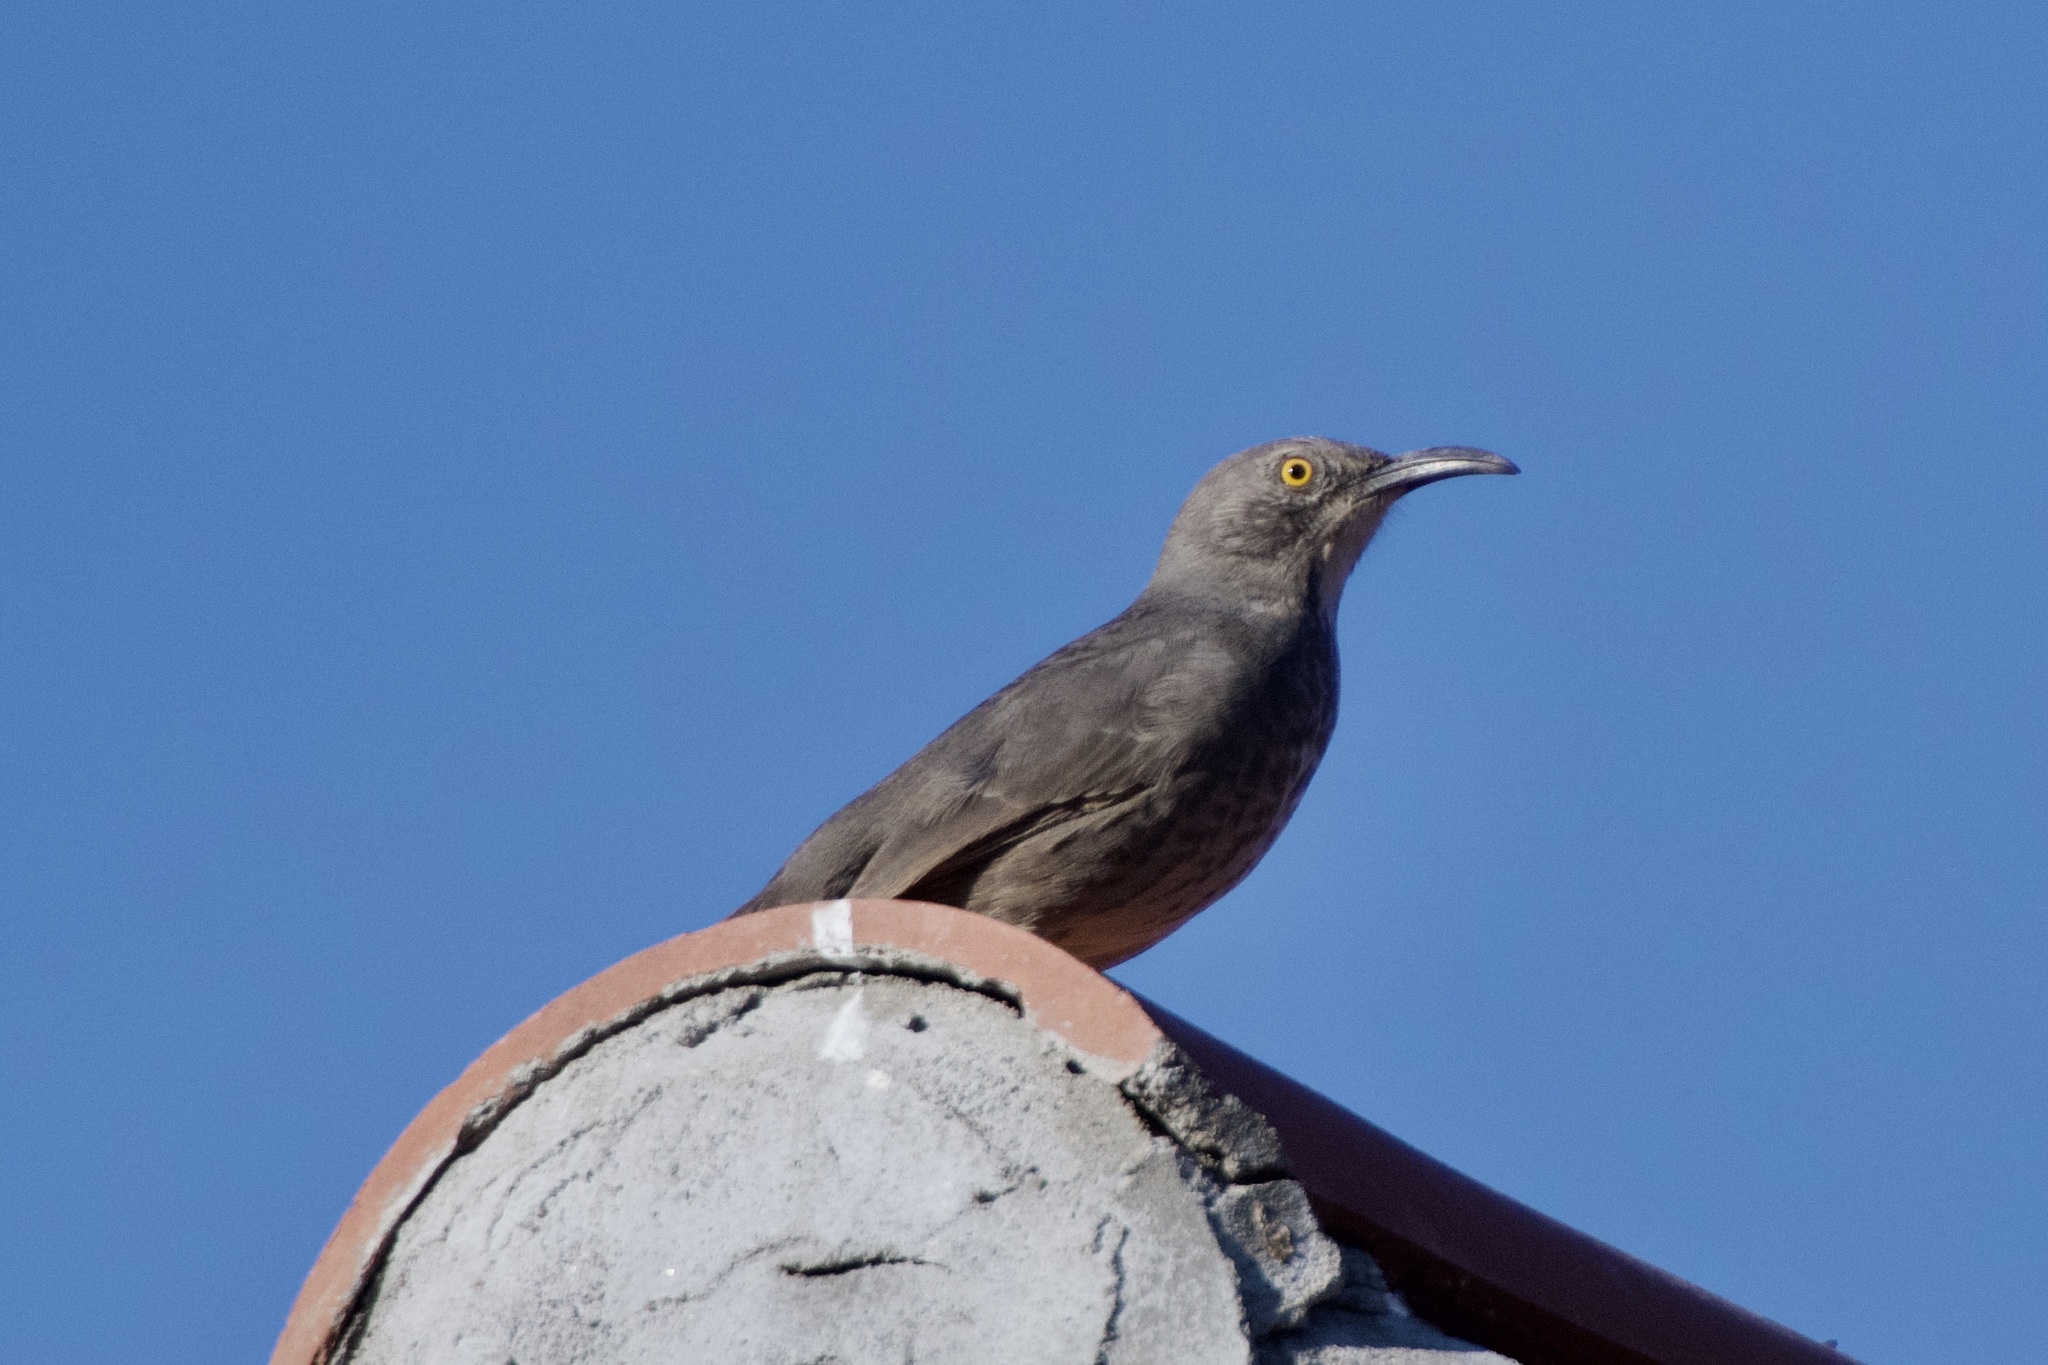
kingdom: Animalia
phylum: Chordata
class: Aves
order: Passeriformes
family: Mimidae
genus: Toxostoma
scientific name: Toxostoma curvirostre
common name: Curve-billed thrasher
